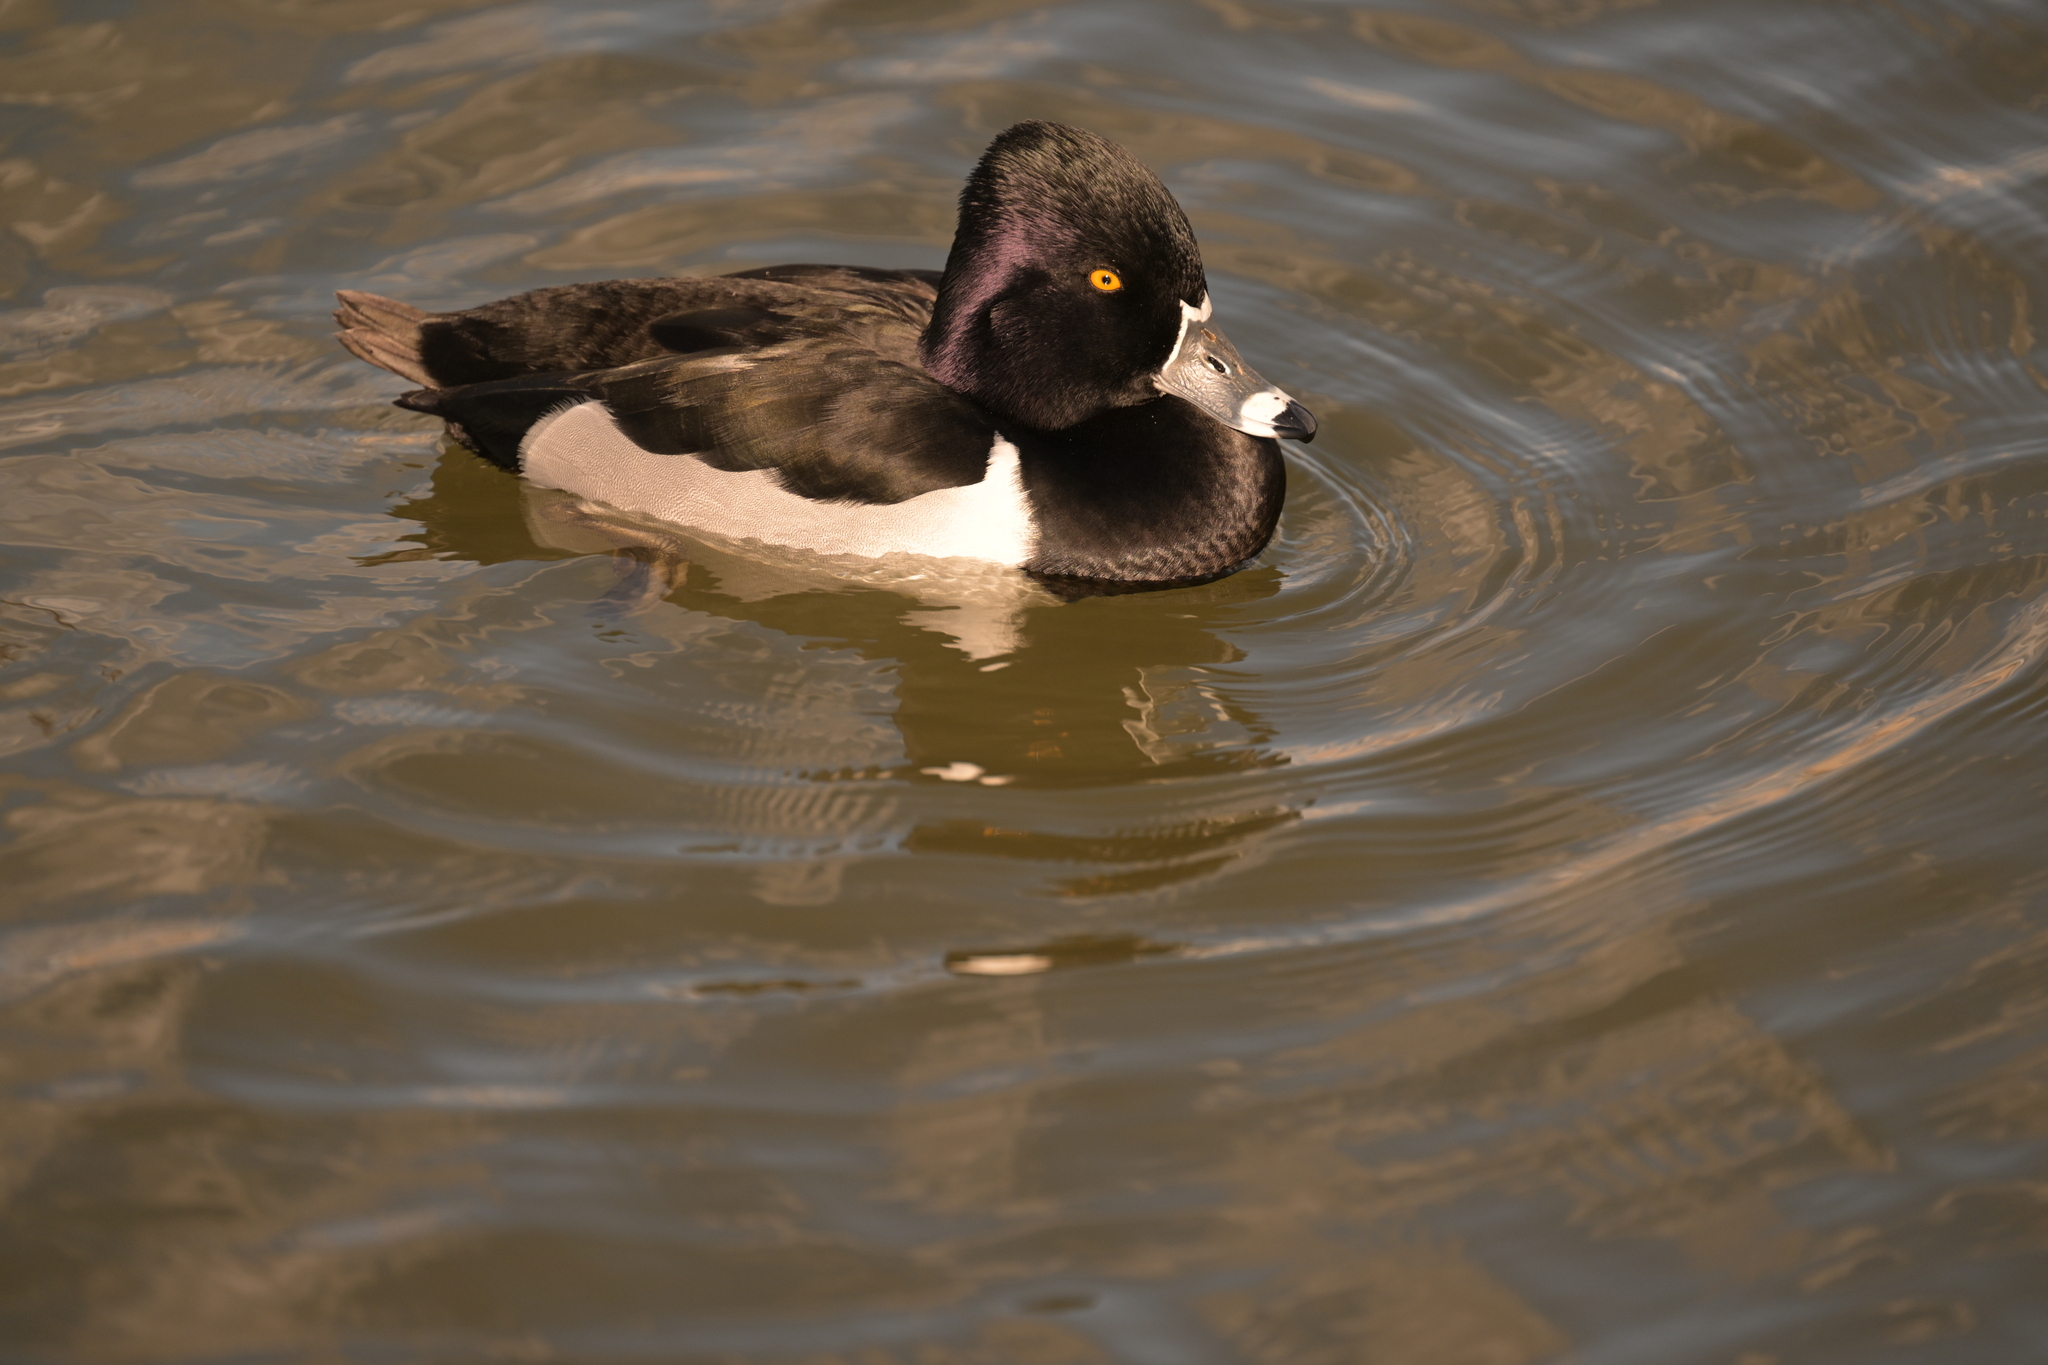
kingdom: Animalia
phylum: Chordata
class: Aves
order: Anseriformes
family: Anatidae
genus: Aythya
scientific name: Aythya collaris
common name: Ring-necked duck
